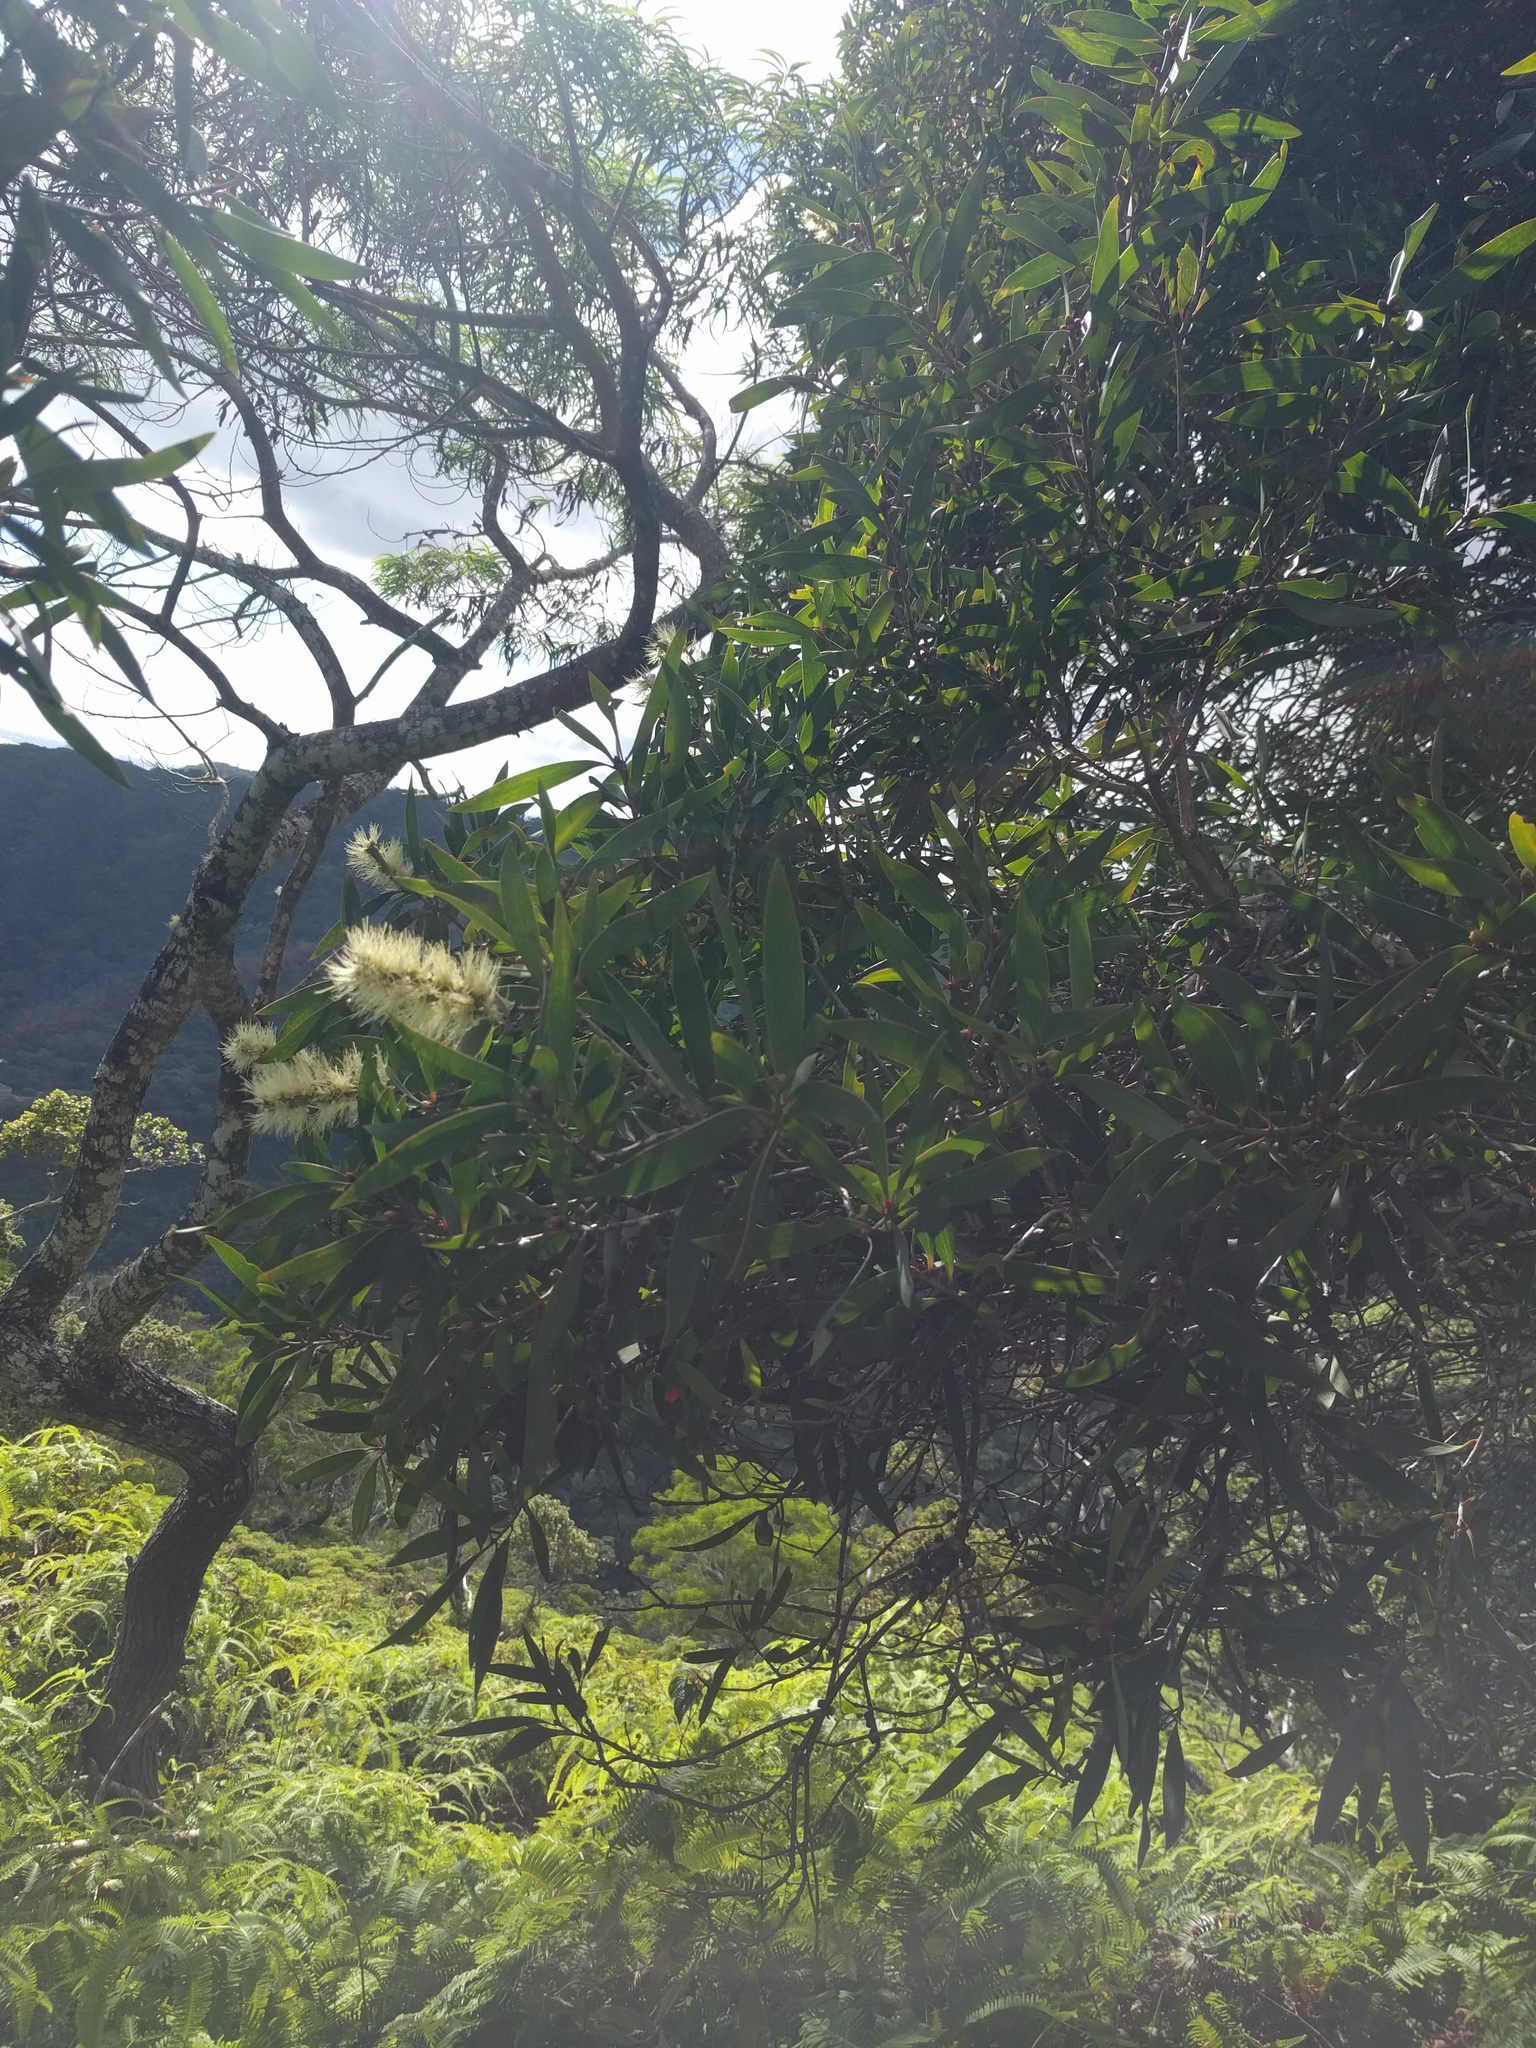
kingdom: Plantae
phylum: Tracheophyta
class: Magnoliopsida
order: Myrtales
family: Myrtaceae
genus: Melaleuca
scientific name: Melaleuca quinquenervia
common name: Punktree
